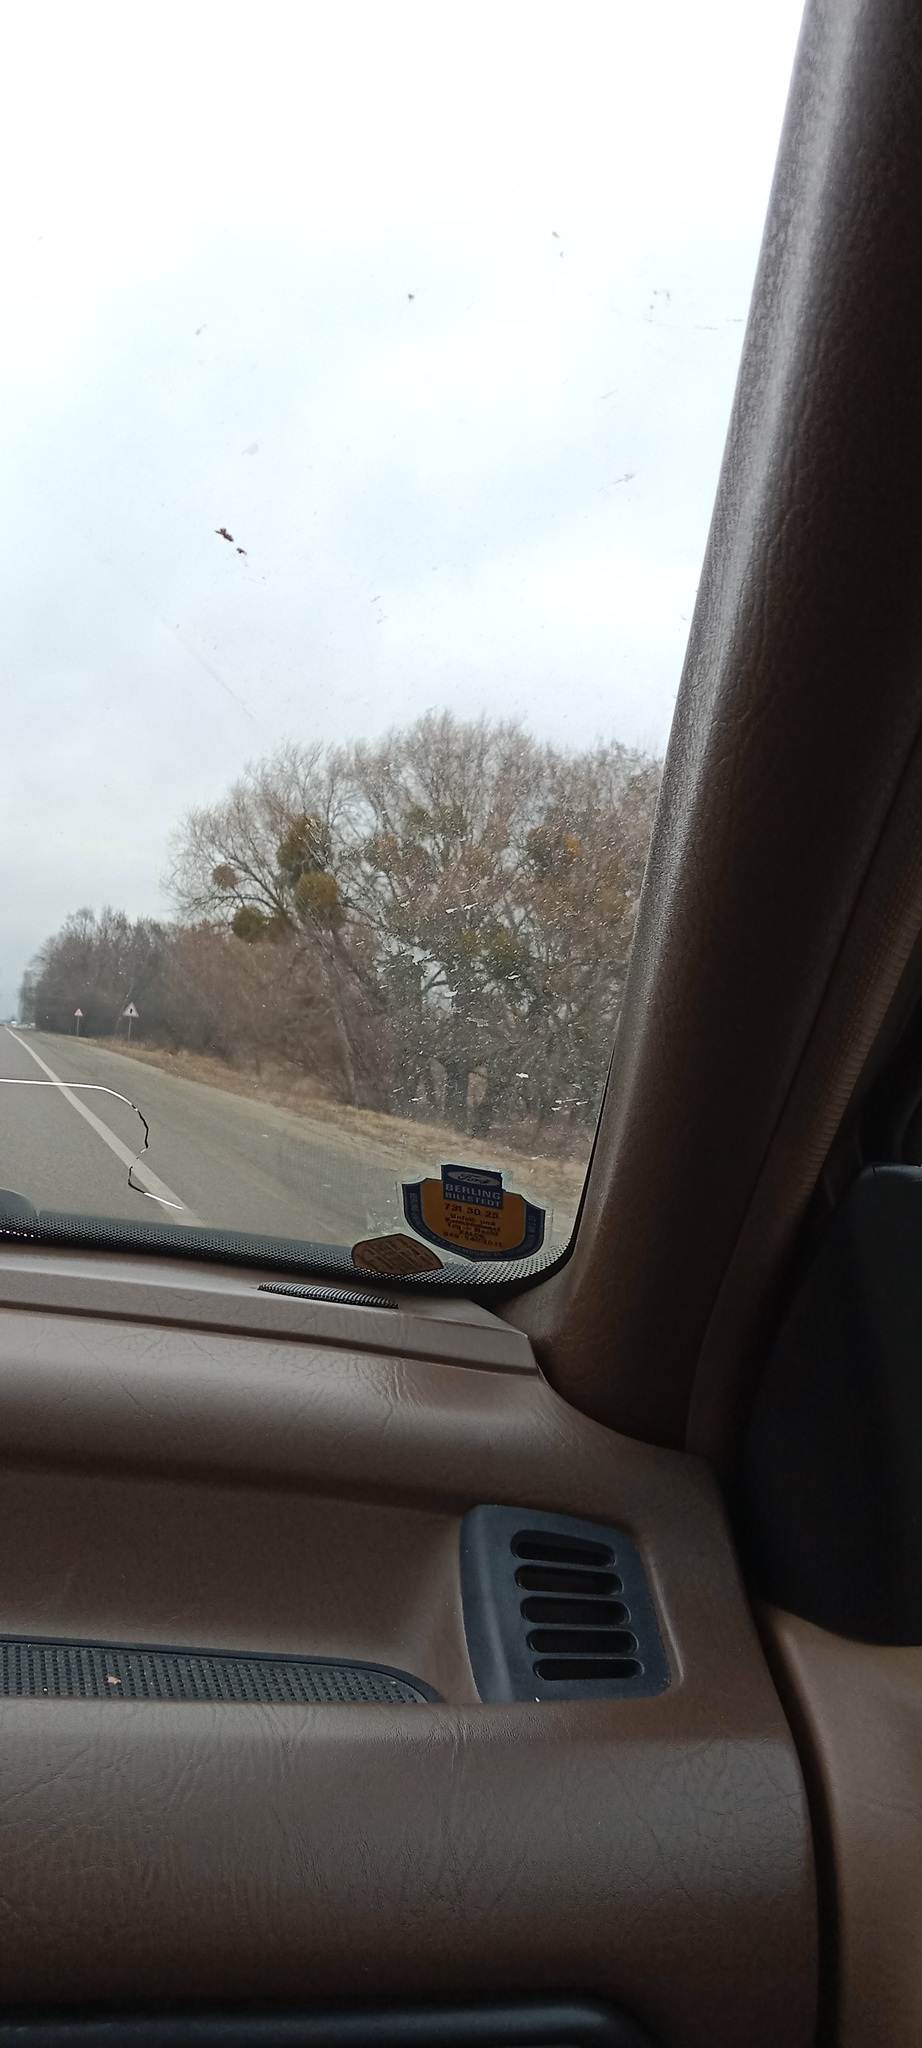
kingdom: Plantae
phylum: Tracheophyta
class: Magnoliopsida
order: Santalales
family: Viscaceae
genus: Viscum
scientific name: Viscum album
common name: Mistletoe
